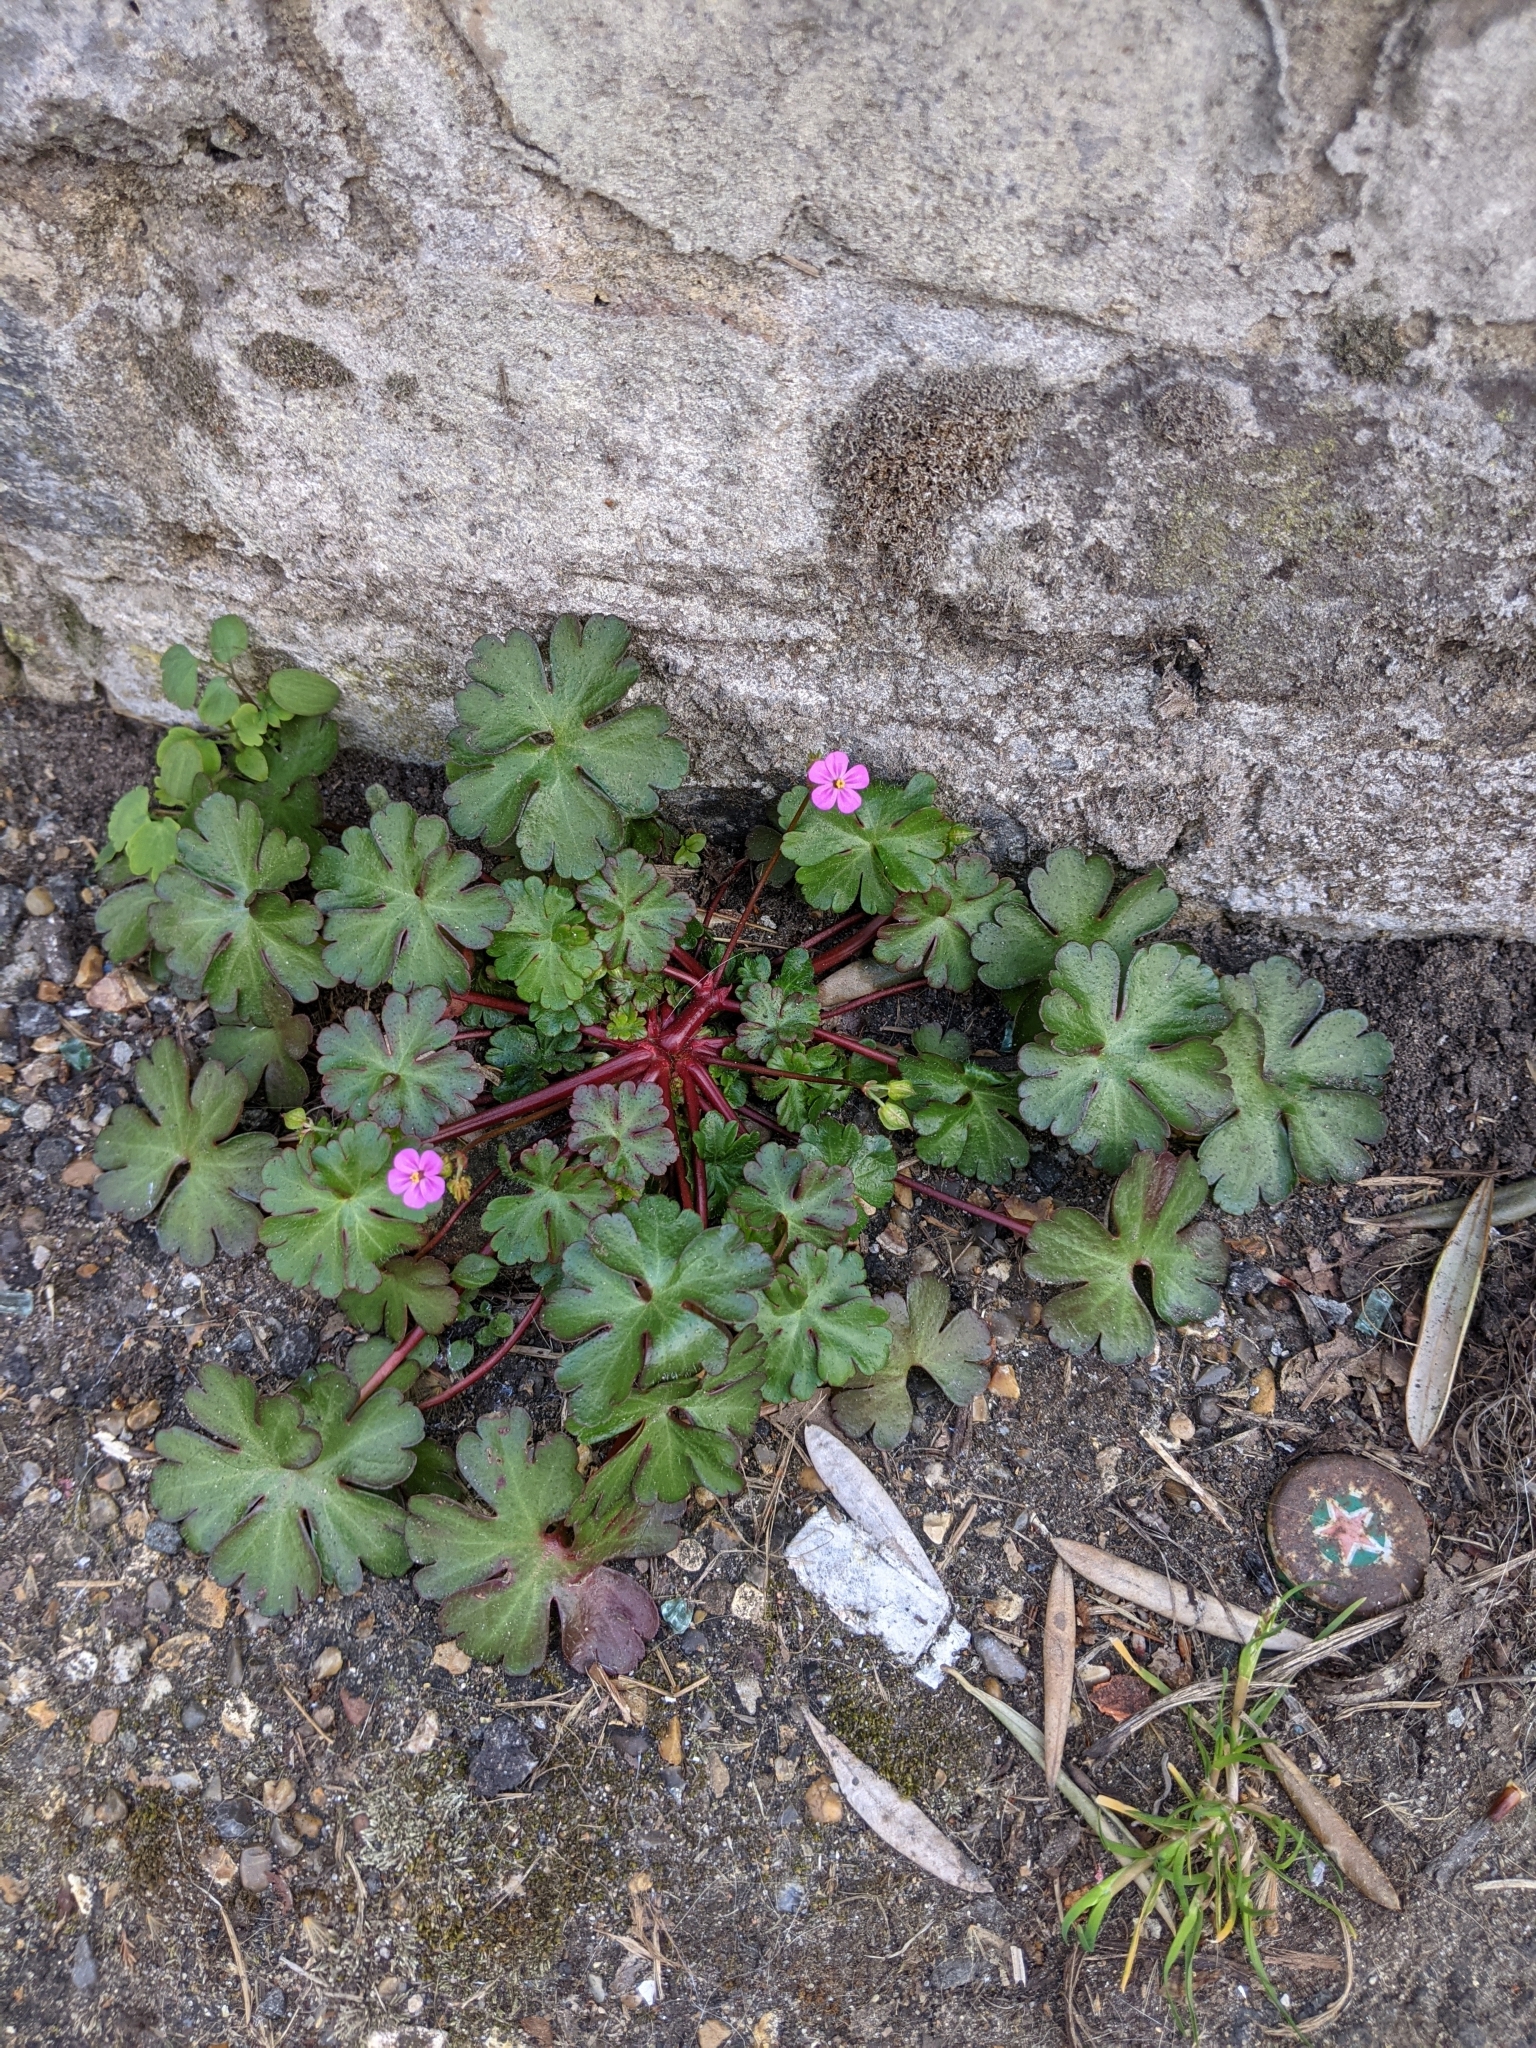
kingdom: Plantae
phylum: Tracheophyta
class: Magnoliopsida
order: Geraniales
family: Geraniaceae
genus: Geranium
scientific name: Geranium lucidum
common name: Shining crane's-bill
